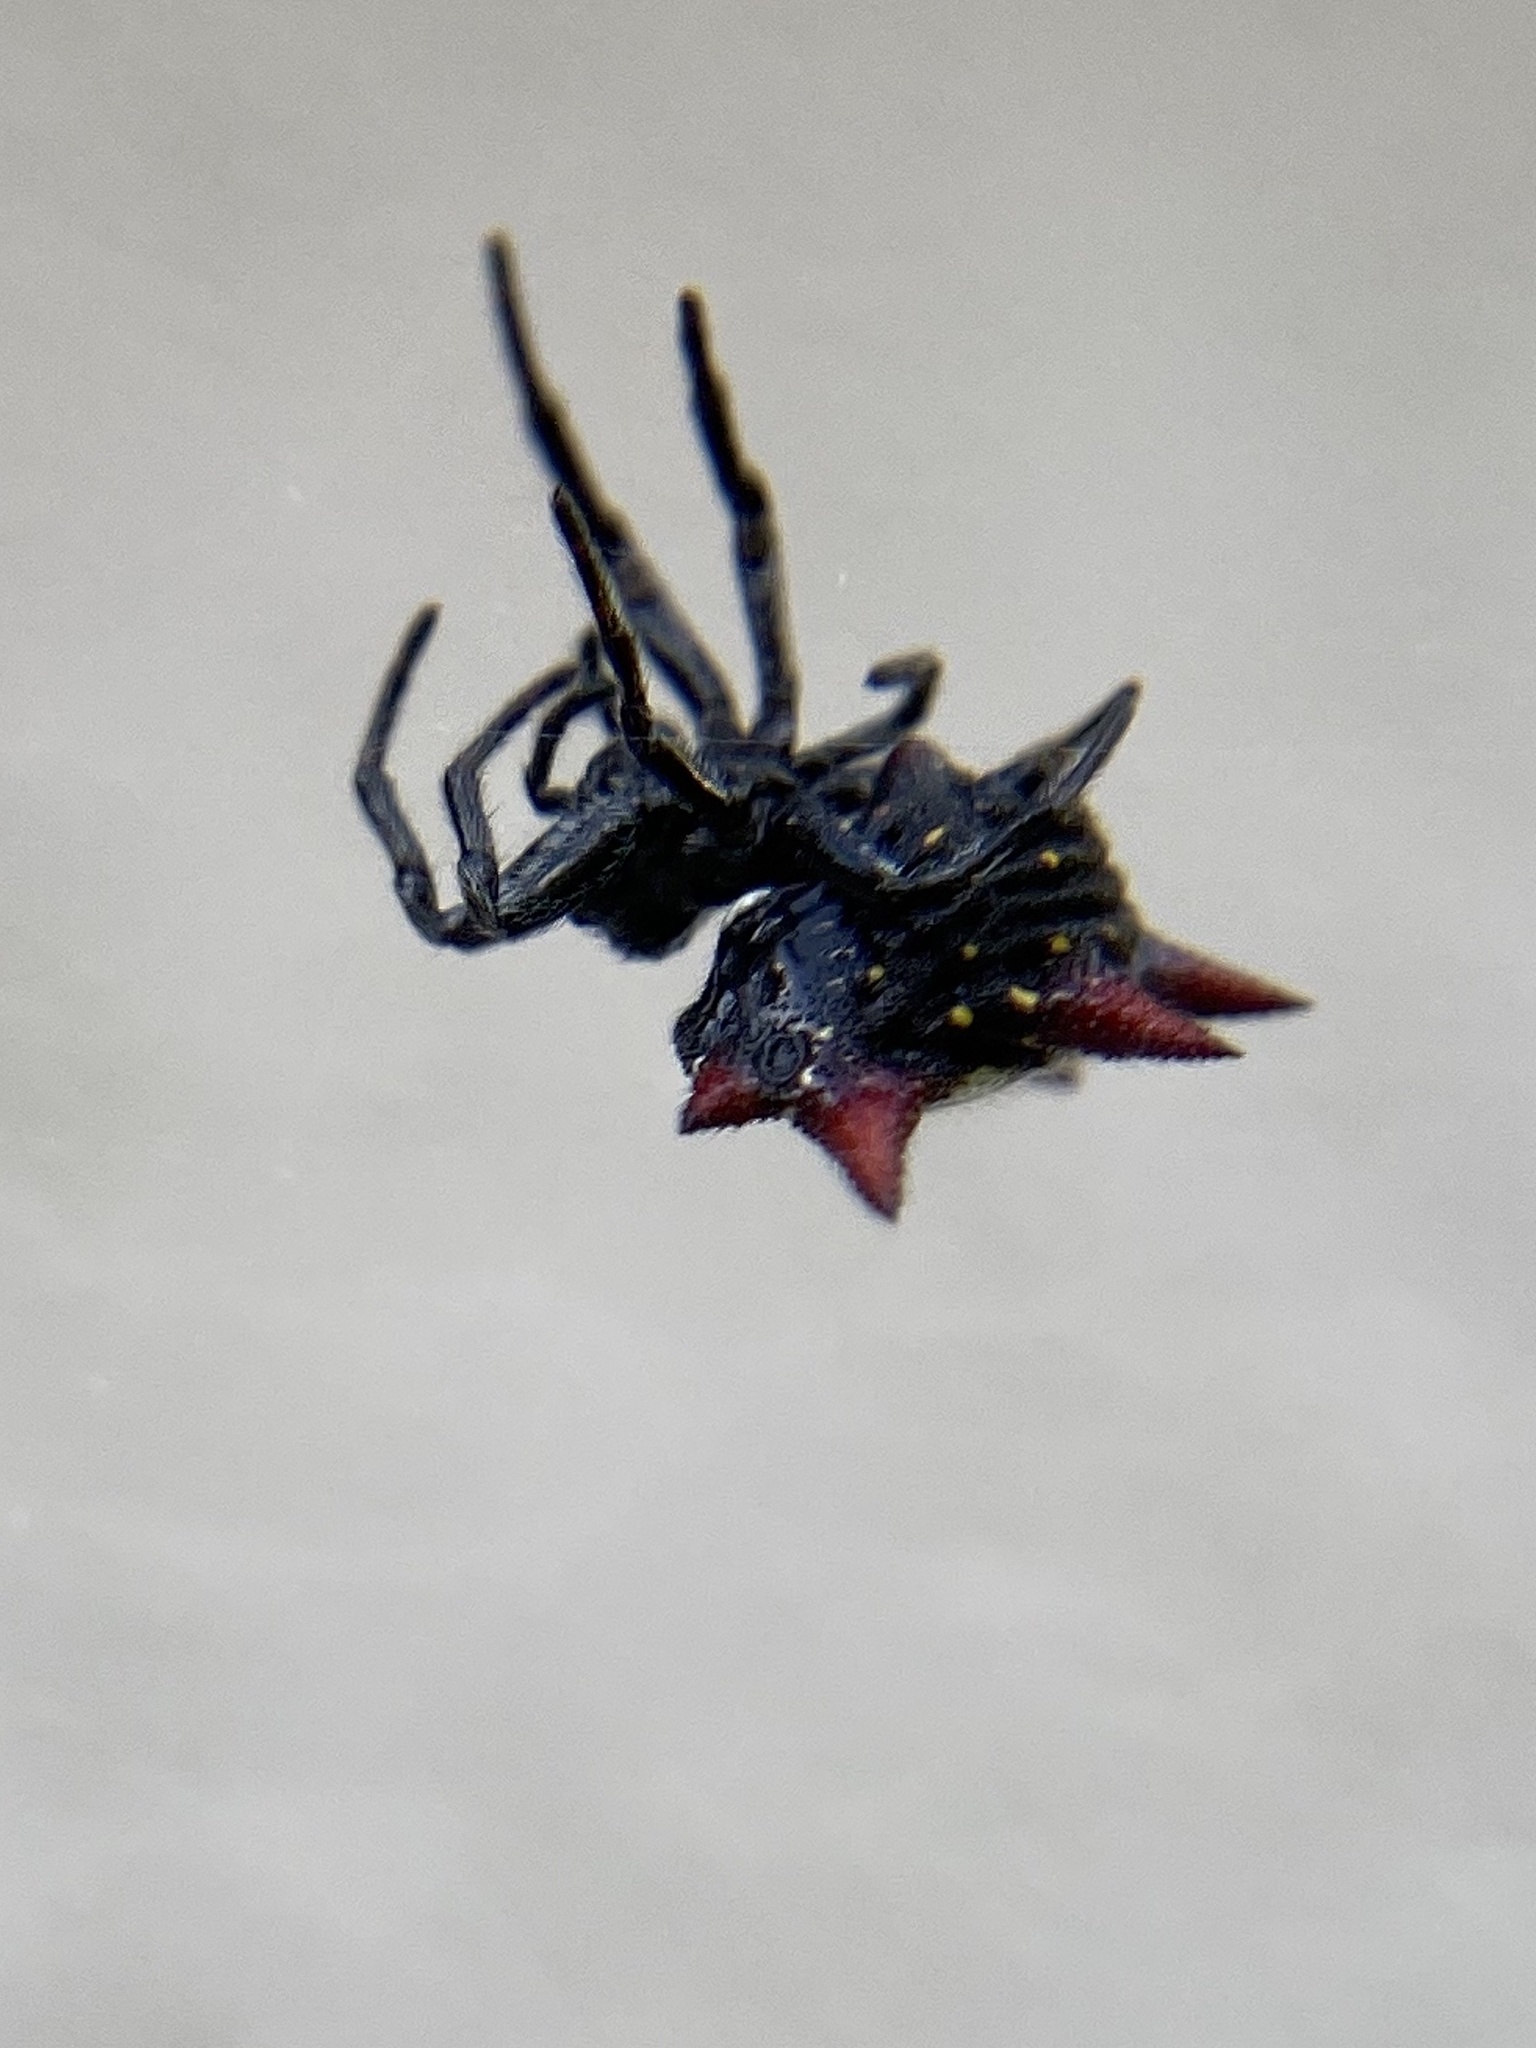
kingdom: Animalia
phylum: Arthropoda
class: Arachnida
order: Araneae
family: Araneidae
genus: Gasteracantha
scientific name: Gasteracantha cancriformis
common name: Orb weavers
